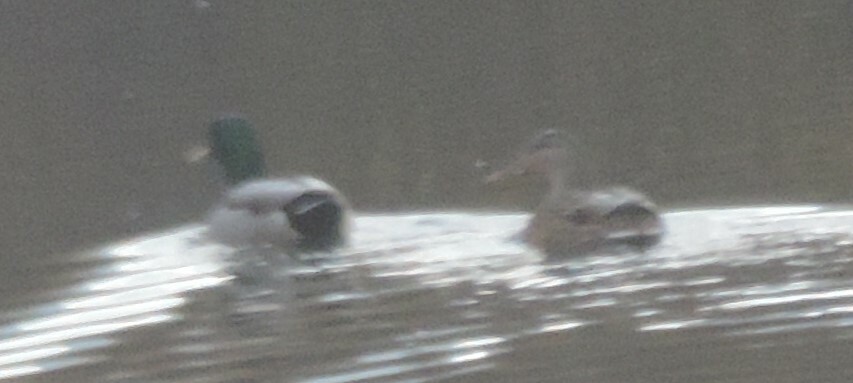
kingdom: Animalia
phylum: Chordata
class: Aves
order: Anseriformes
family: Anatidae
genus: Anas
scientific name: Anas platyrhynchos
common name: Mallard
